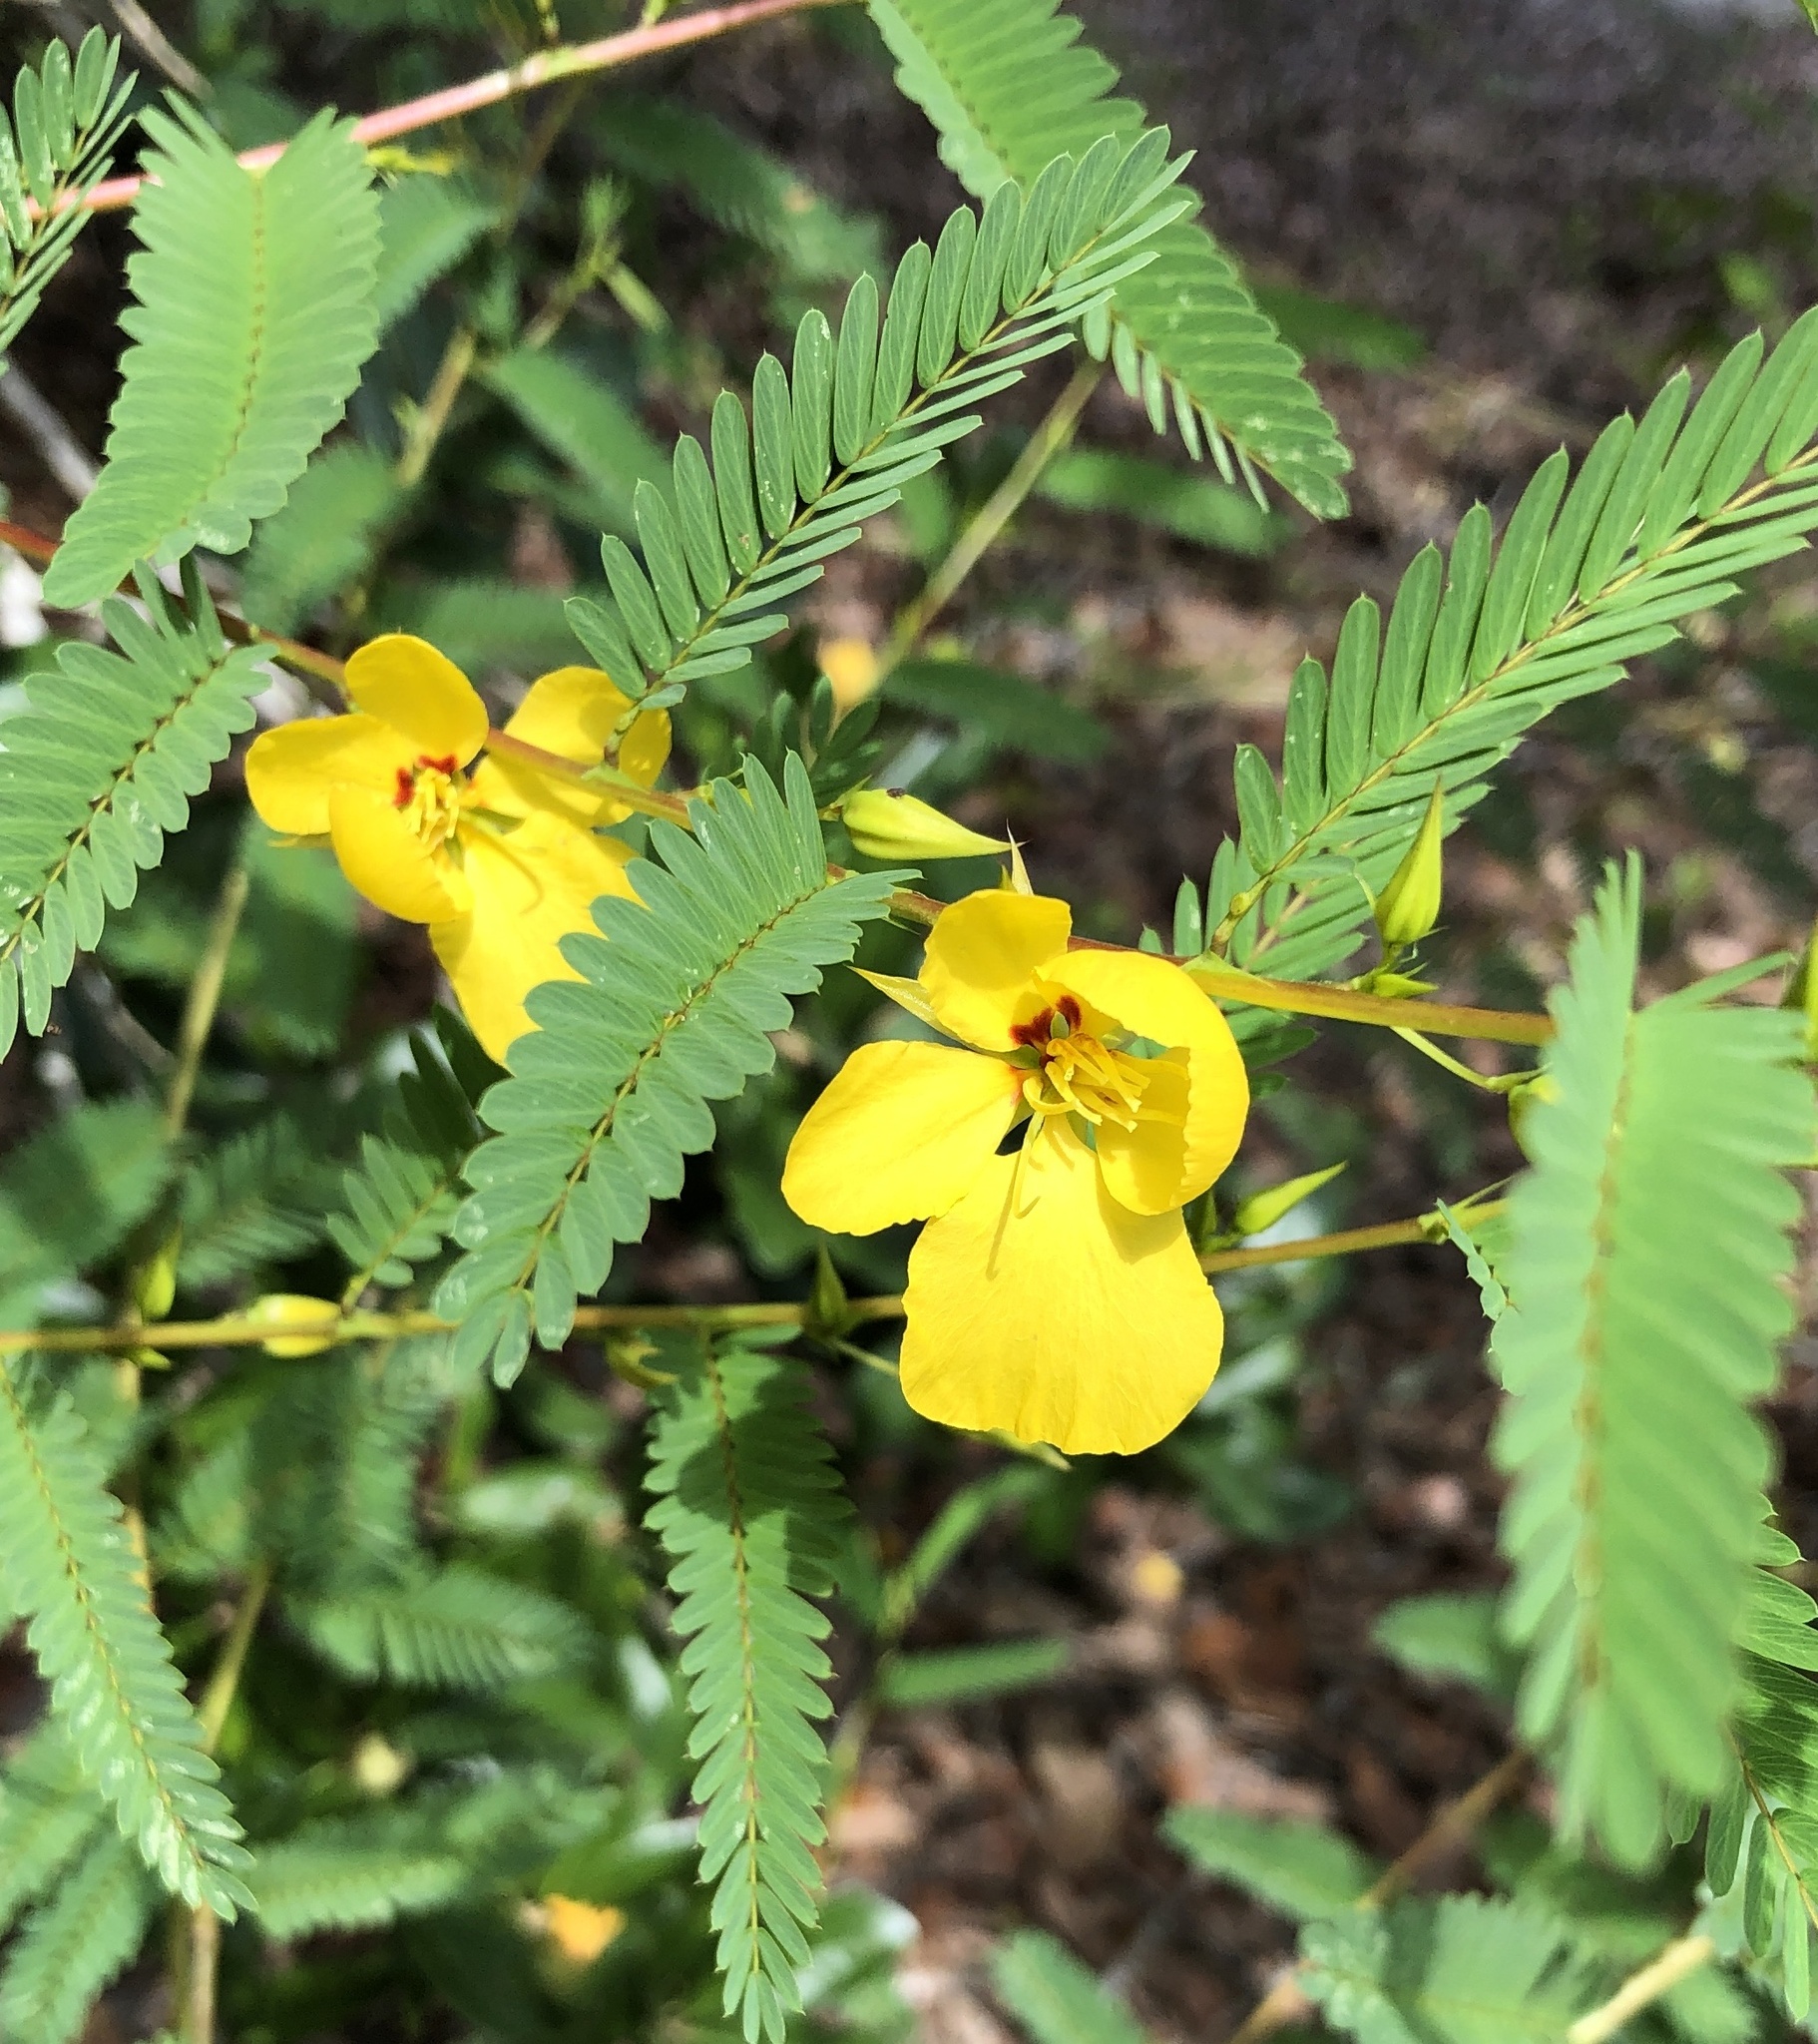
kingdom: Plantae
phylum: Tracheophyta
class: Magnoliopsida
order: Fabales
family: Fabaceae
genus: Chamaecrista
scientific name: Chamaecrista fasciculata
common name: Golden cassia
